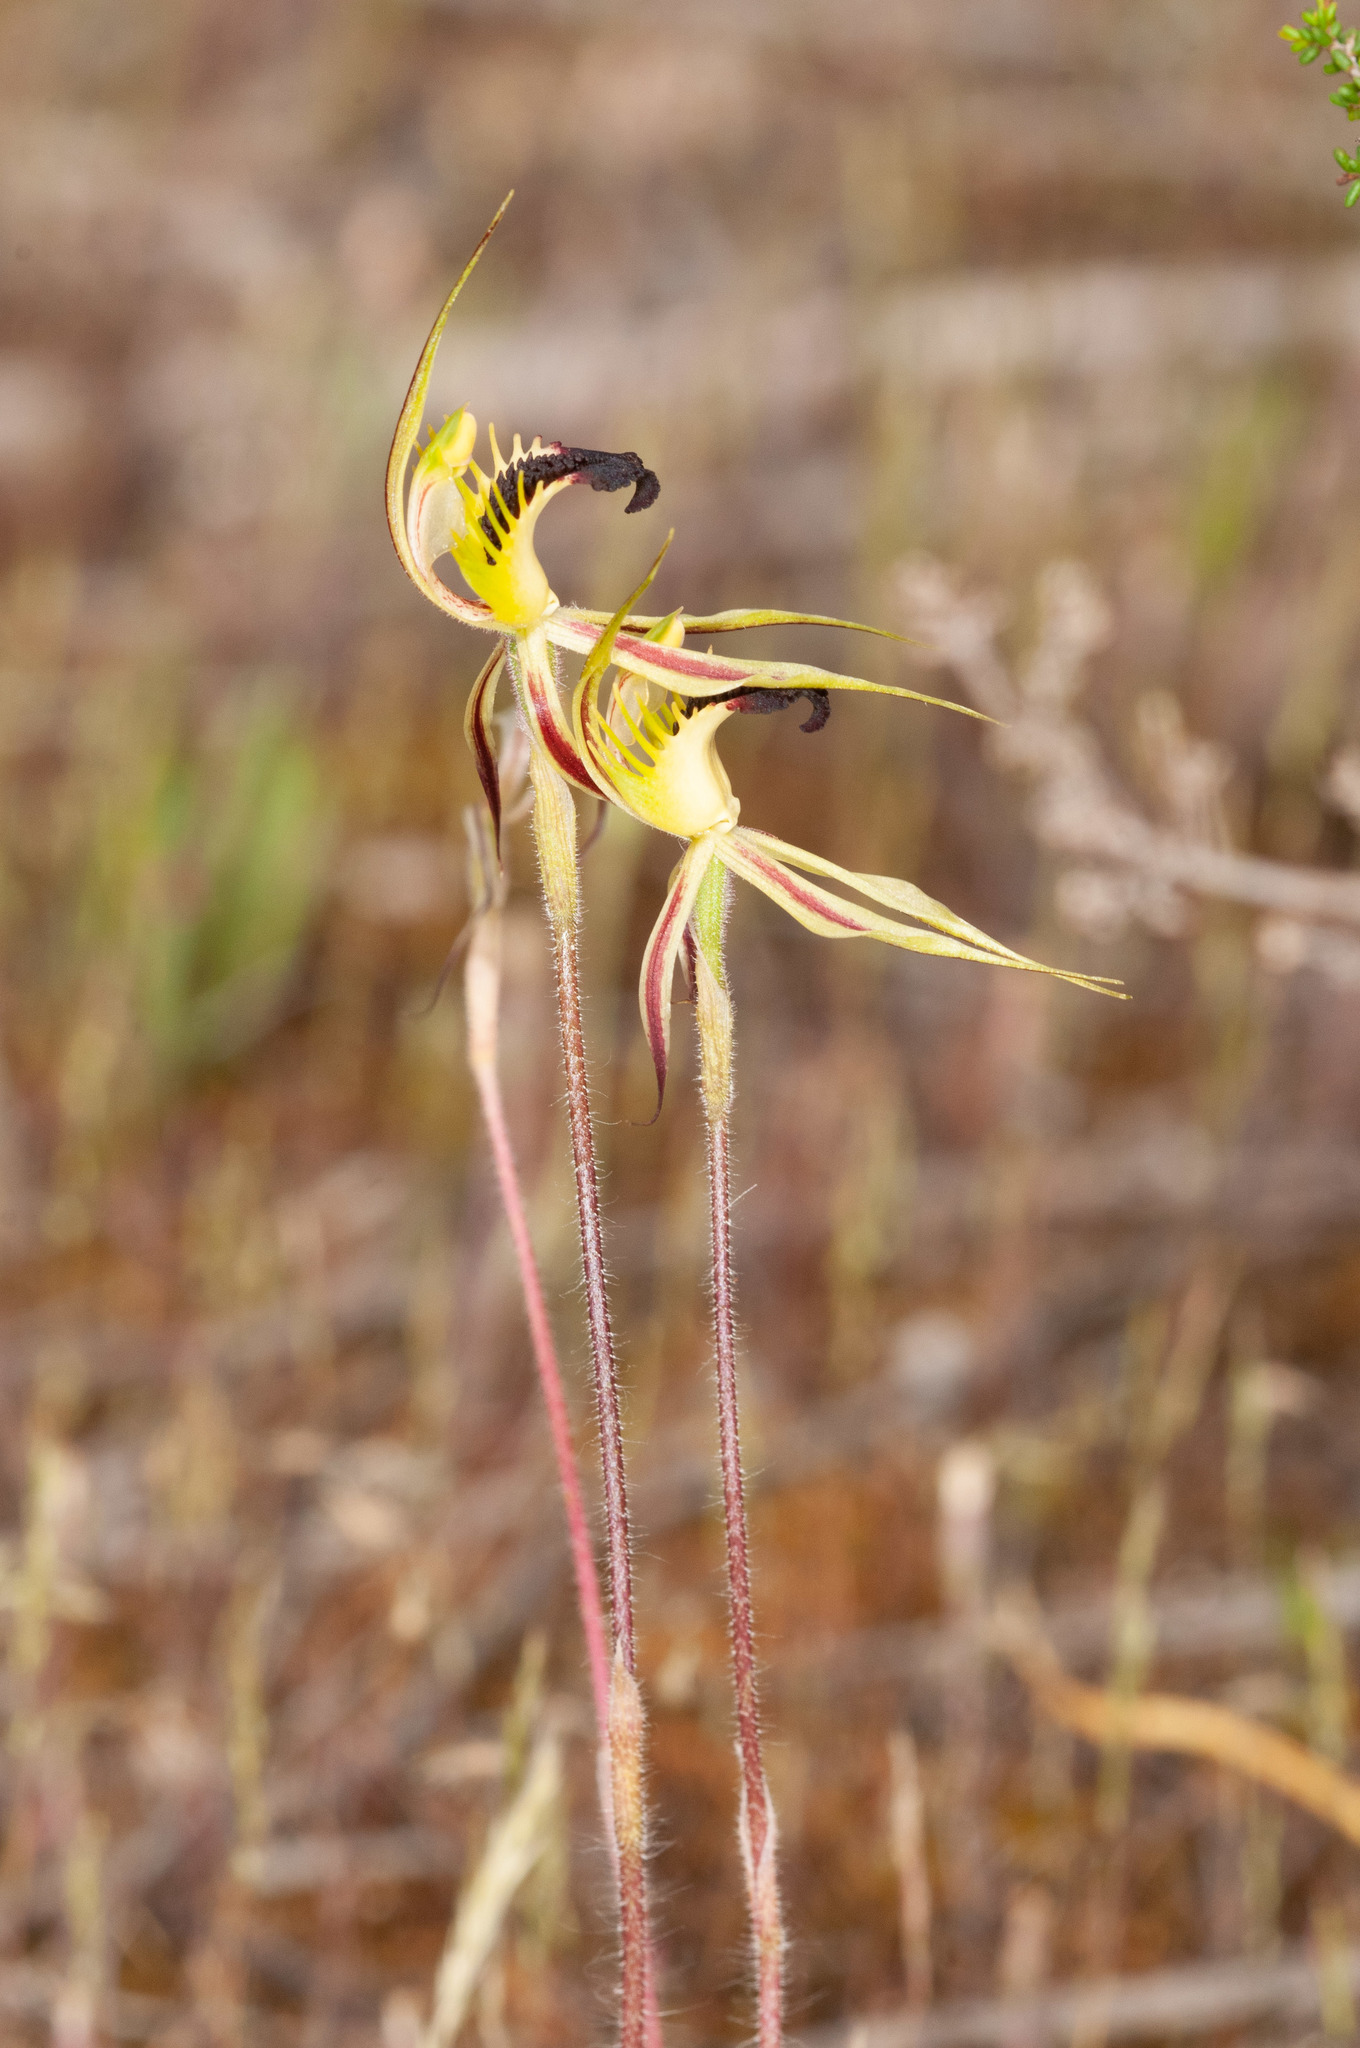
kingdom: Plantae
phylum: Tracheophyta
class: Liliopsida
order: Asparagales
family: Orchidaceae
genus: Caladenia
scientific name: Caladenia stricta
